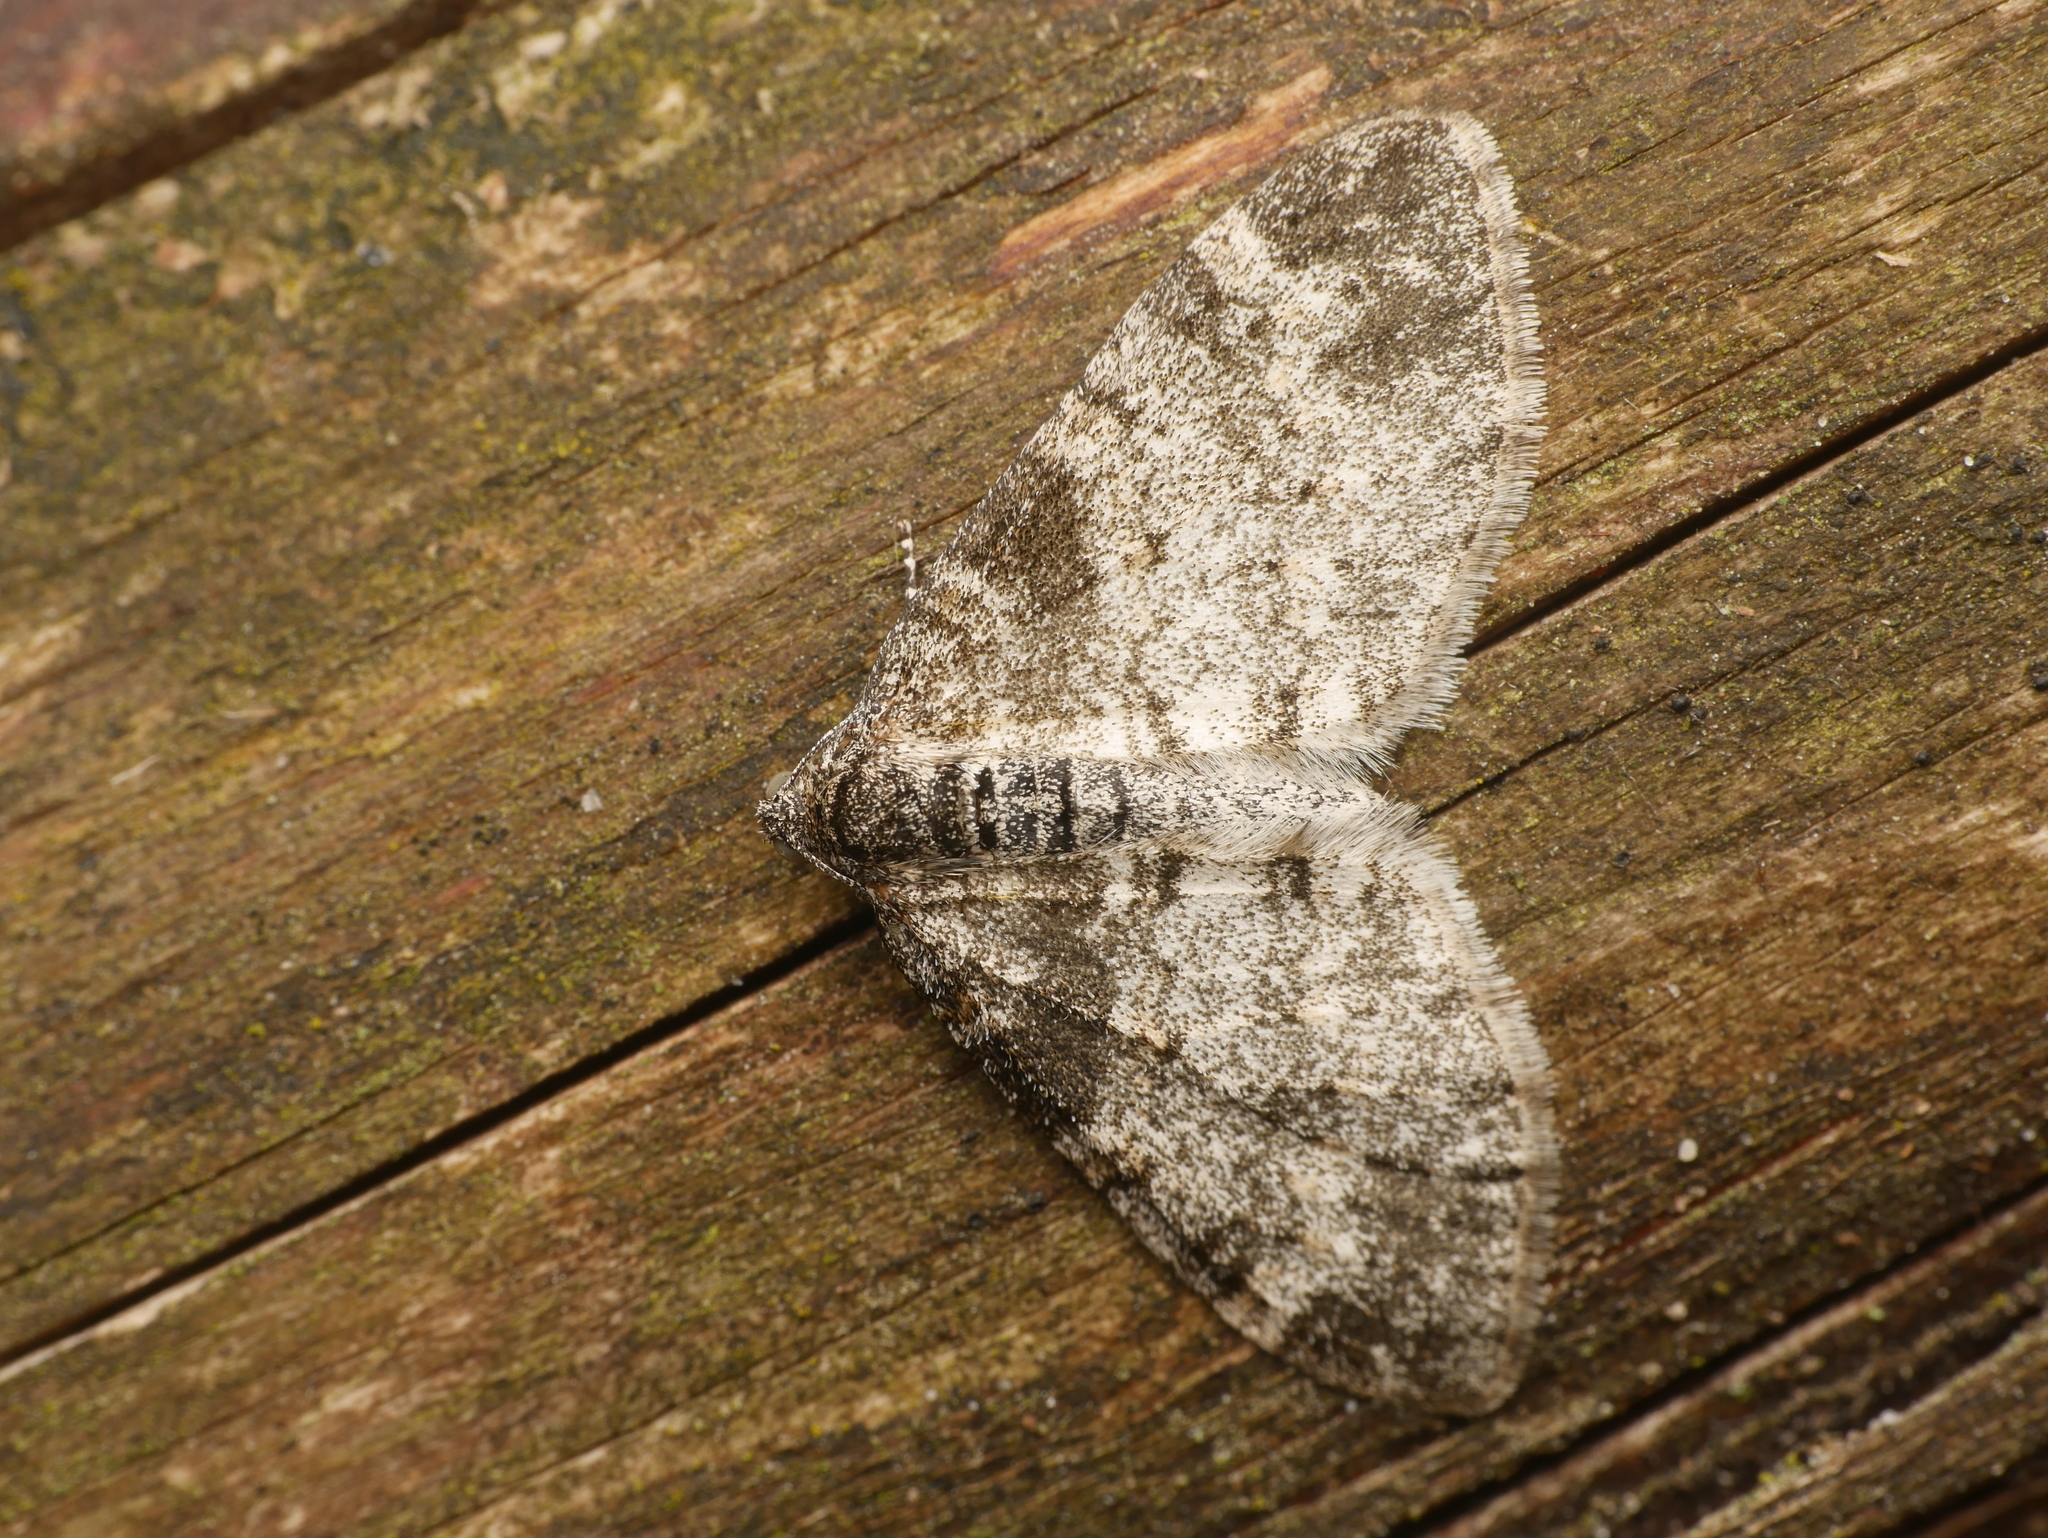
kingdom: Animalia
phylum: Arthropoda
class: Insecta
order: Lepidoptera
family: Geometridae
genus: Lobophora
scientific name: Lobophora halterata
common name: Seraphim
